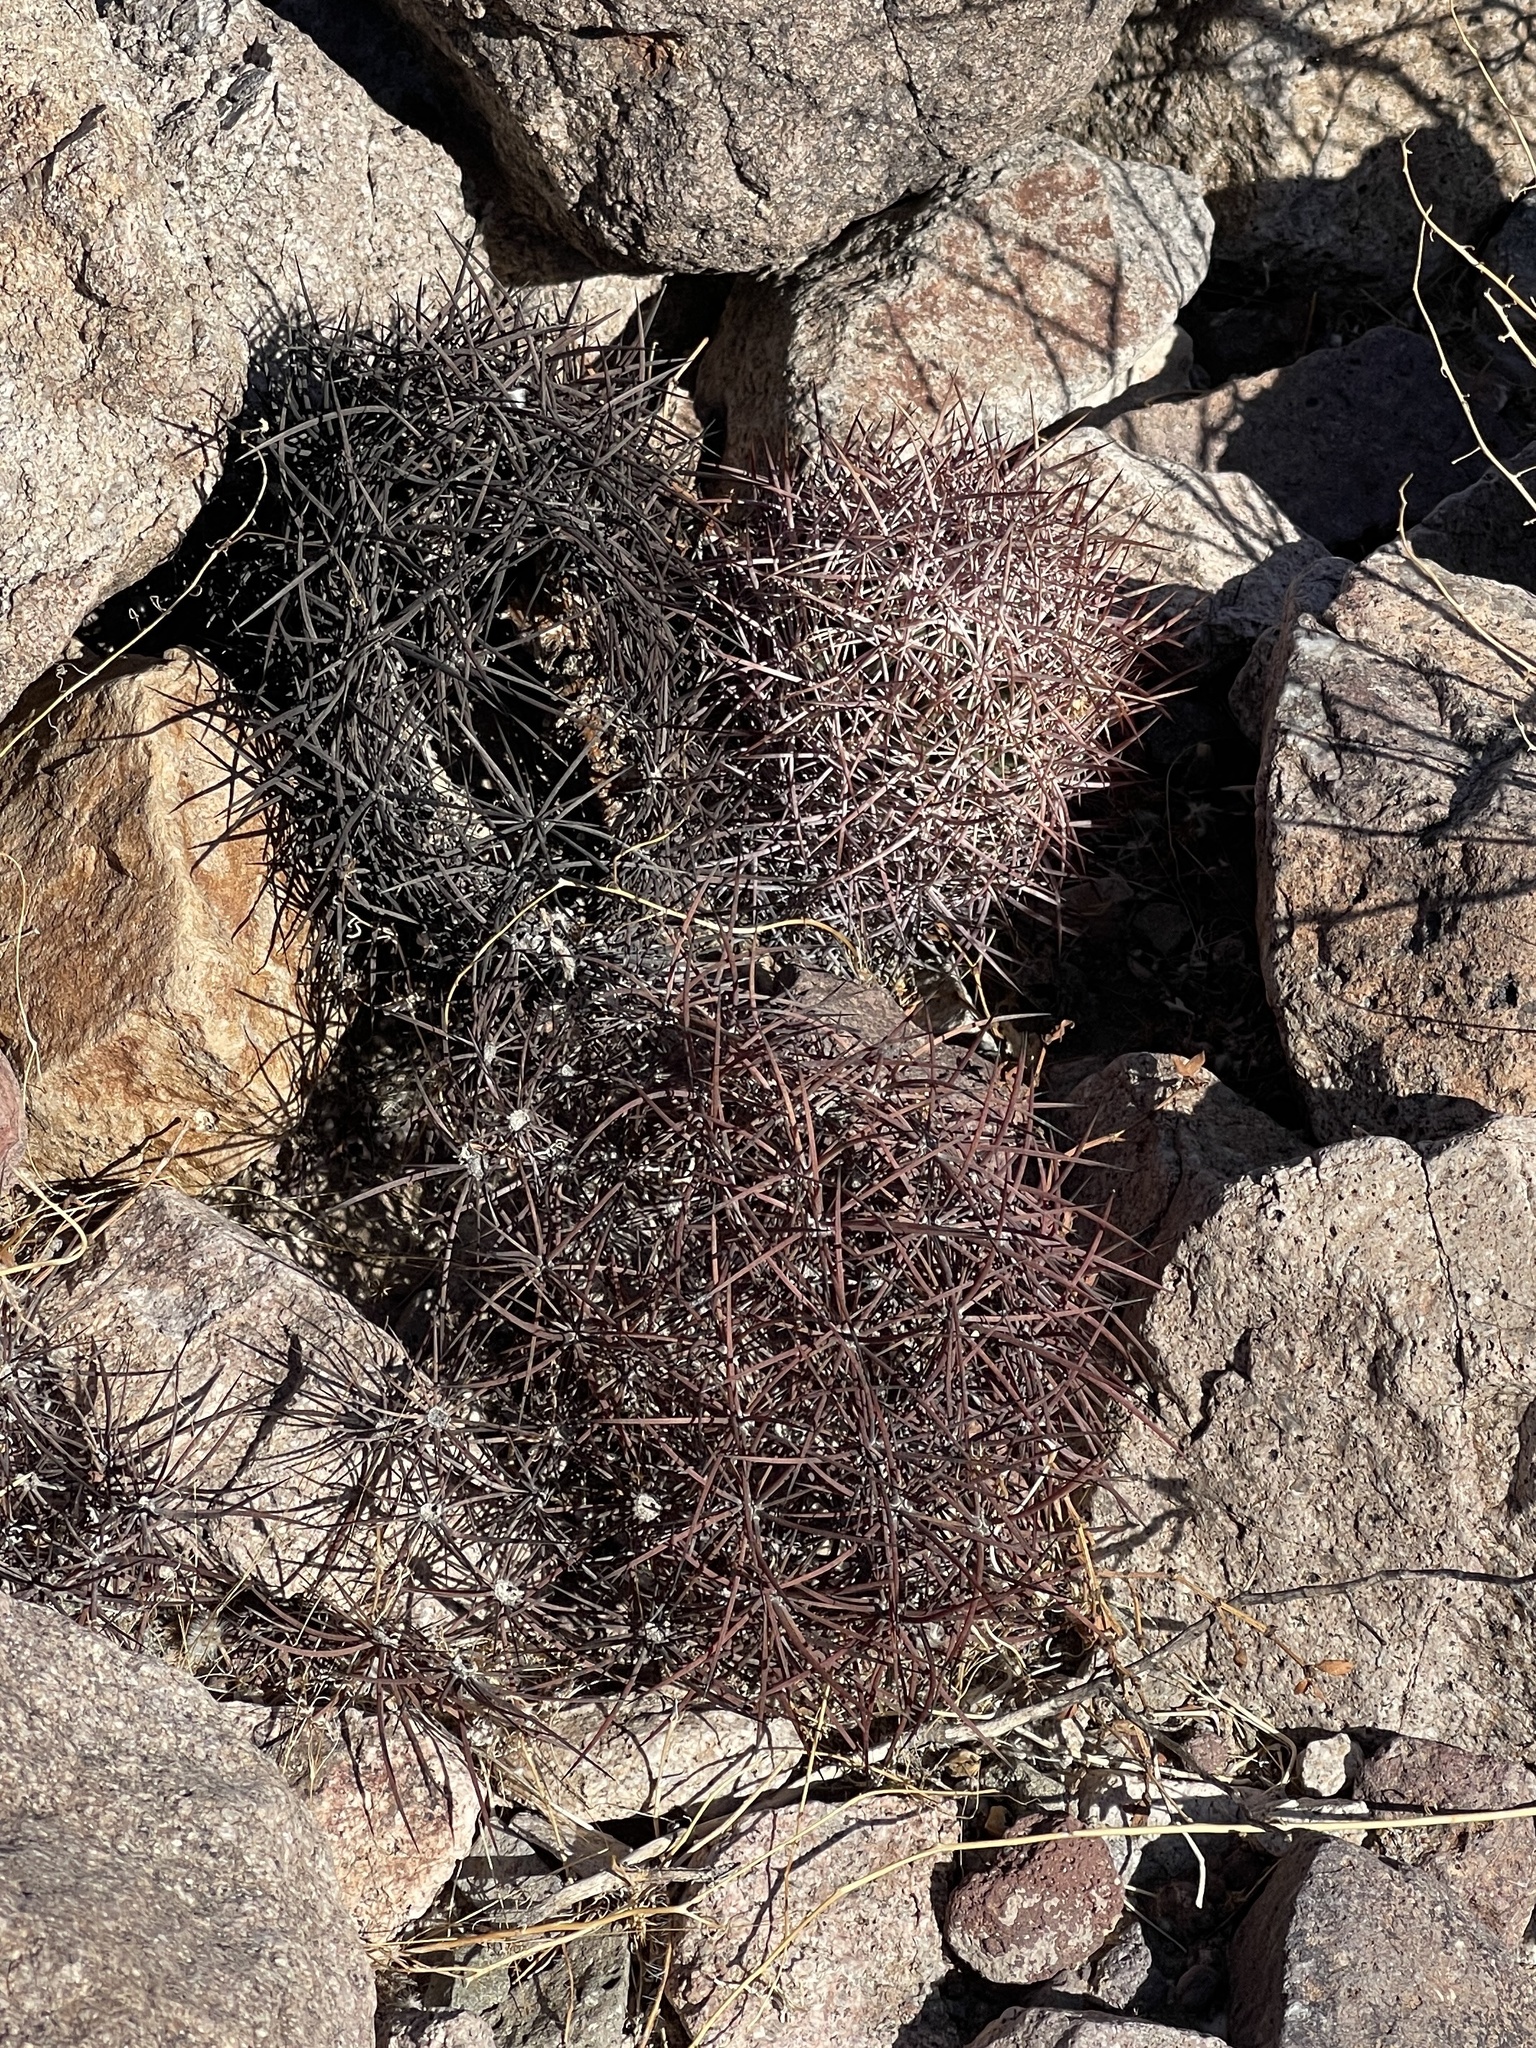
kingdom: Plantae
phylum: Tracheophyta
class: Magnoliopsida
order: Caryophyllales
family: Cactaceae
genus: Ferocactus
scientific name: Ferocactus cylindraceus
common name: California barrel cactus
